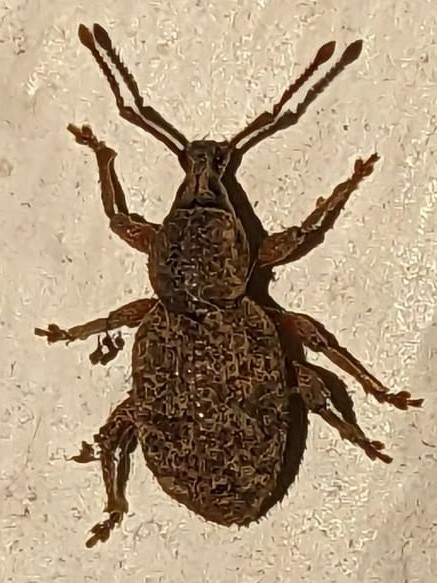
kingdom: Animalia
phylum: Arthropoda
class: Insecta
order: Coleoptera
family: Curculionidae
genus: Otiorhynchus
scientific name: Otiorhynchus singularis
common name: Clay-coloured weevil
